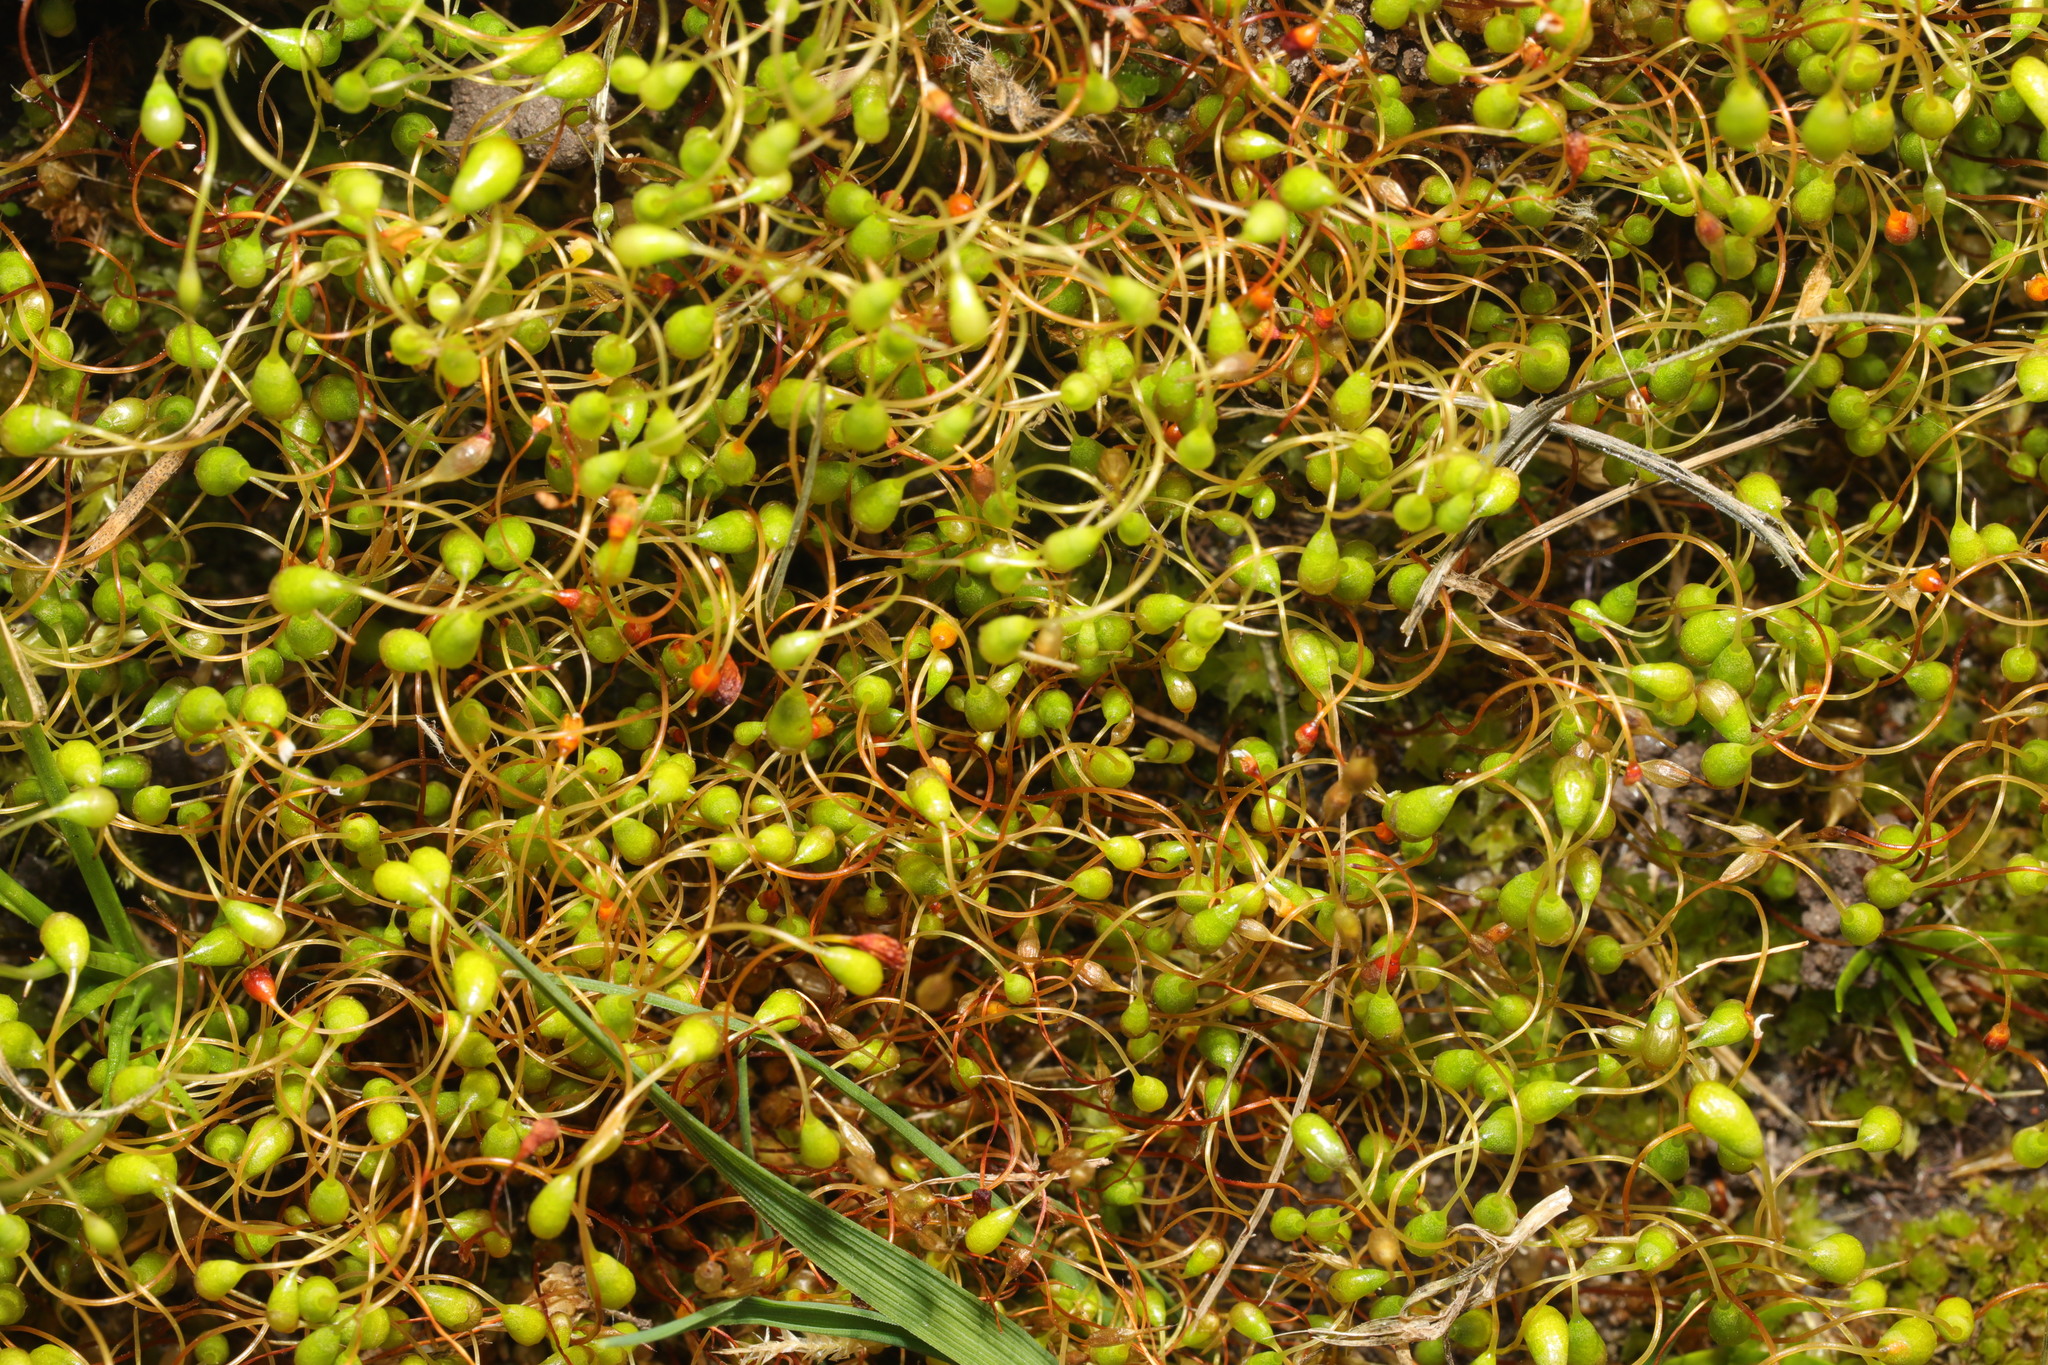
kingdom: Plantae
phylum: Bryophyta
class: Bryopsida
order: Funariales
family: Funariaceae
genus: Funaria
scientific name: Funaria hygrometrica
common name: Common cord moss
